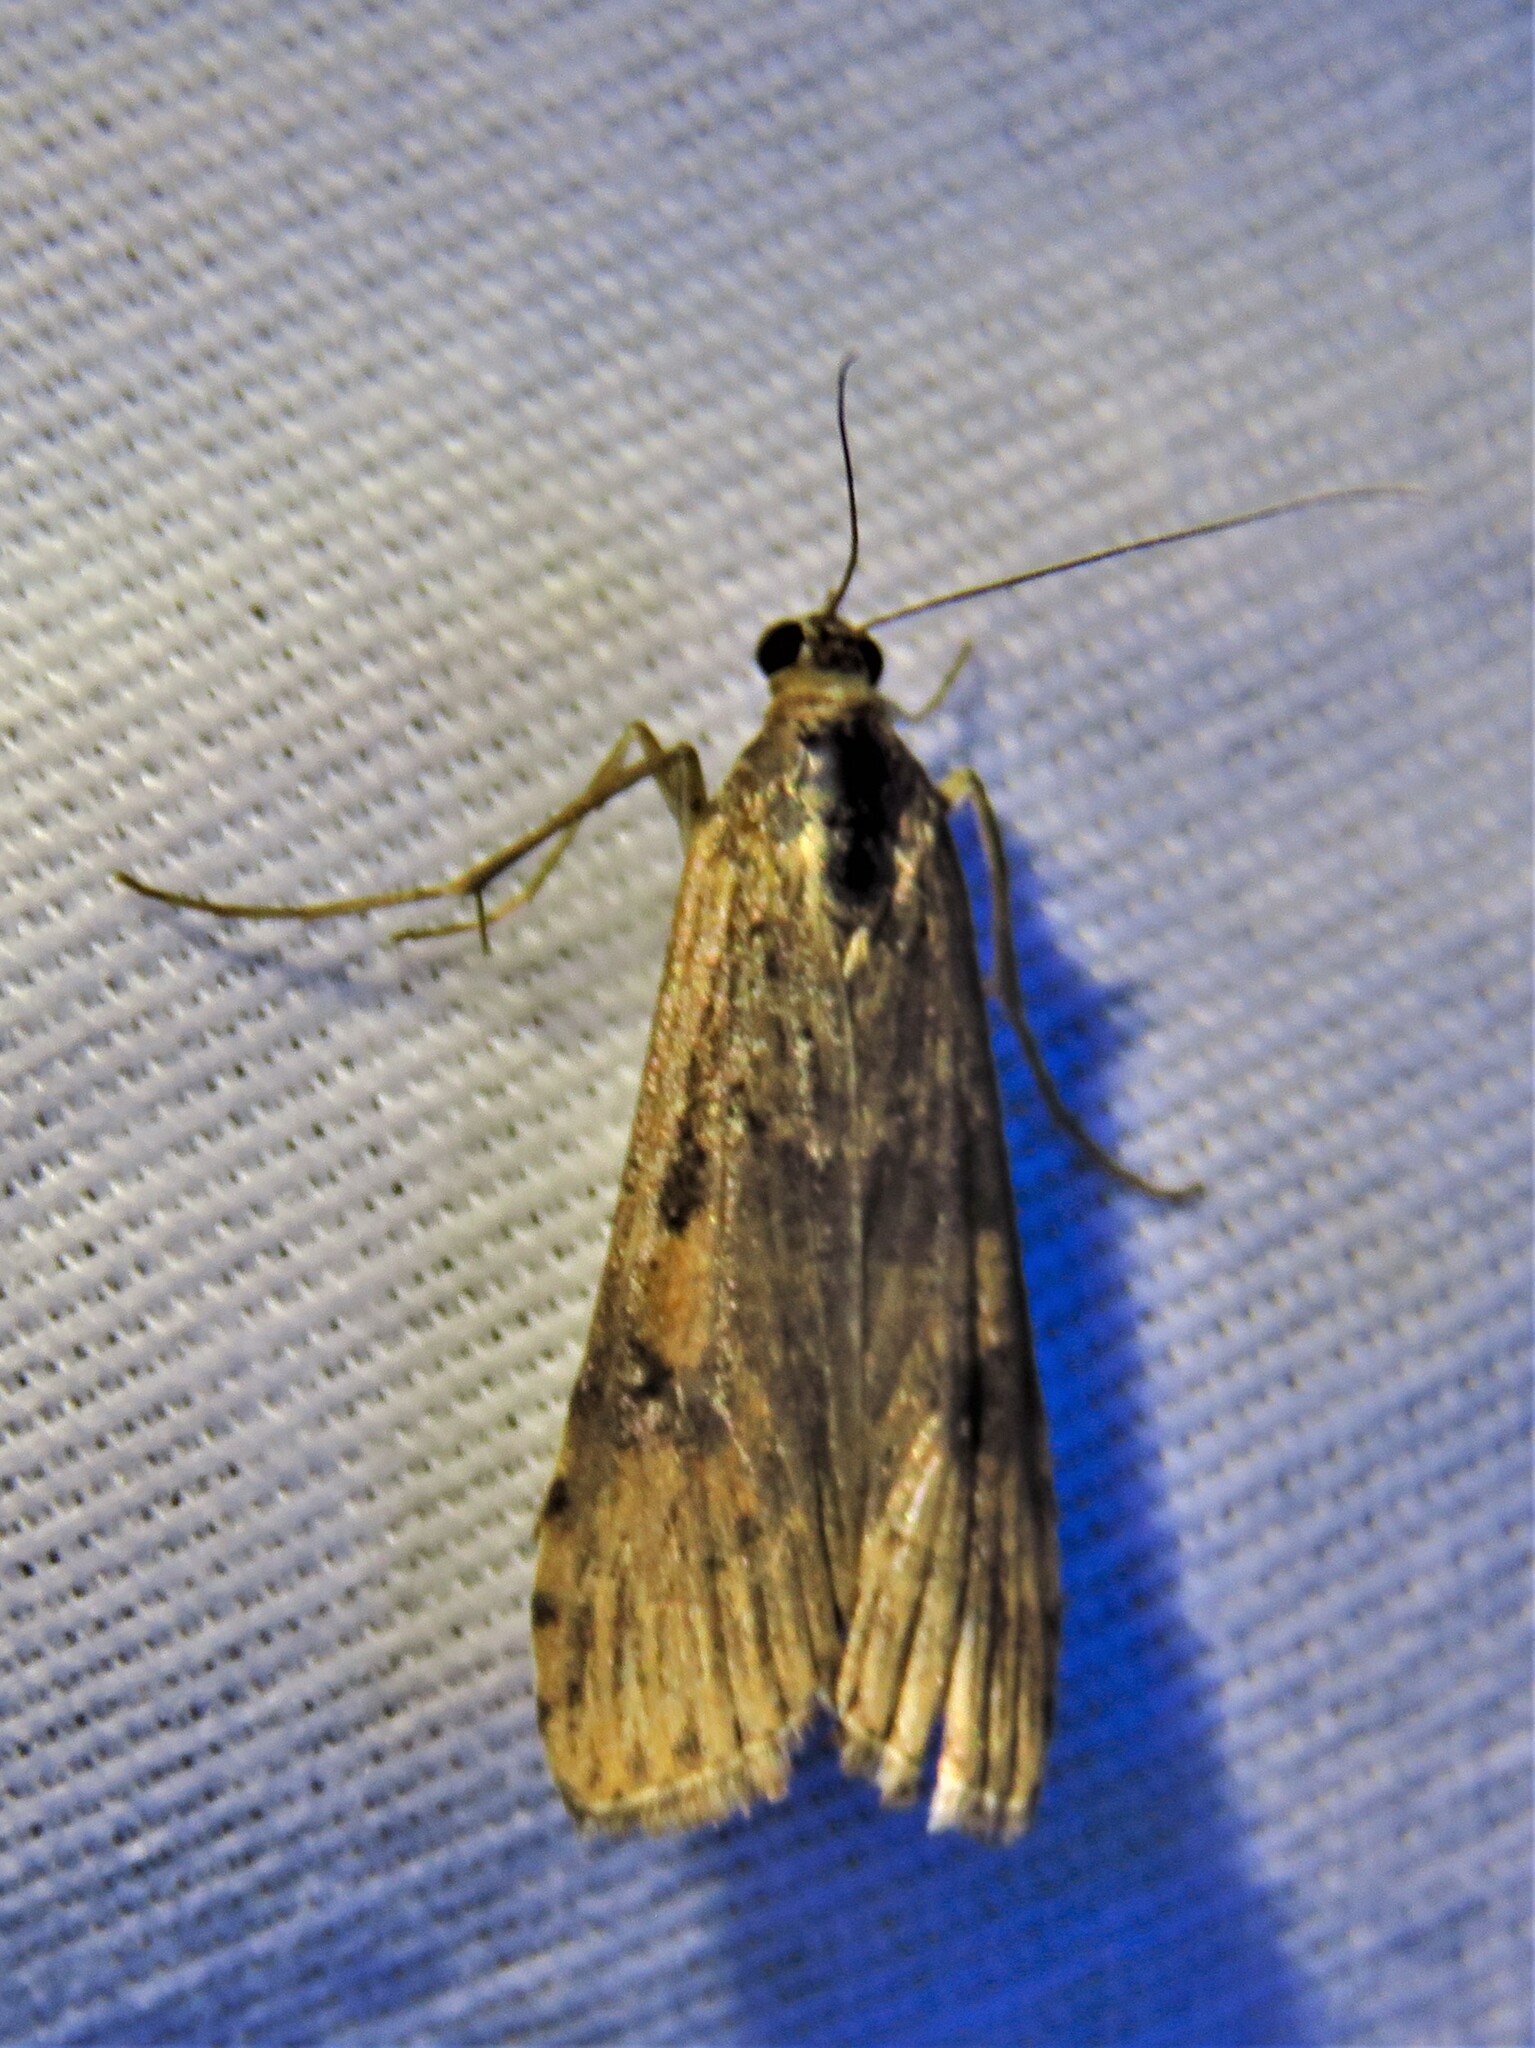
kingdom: Animalia
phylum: Arthropoda
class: Insecta
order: Lepidoptera
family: Crambidae
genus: Nomophila
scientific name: Nomophila nearctica
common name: American rush veneer
